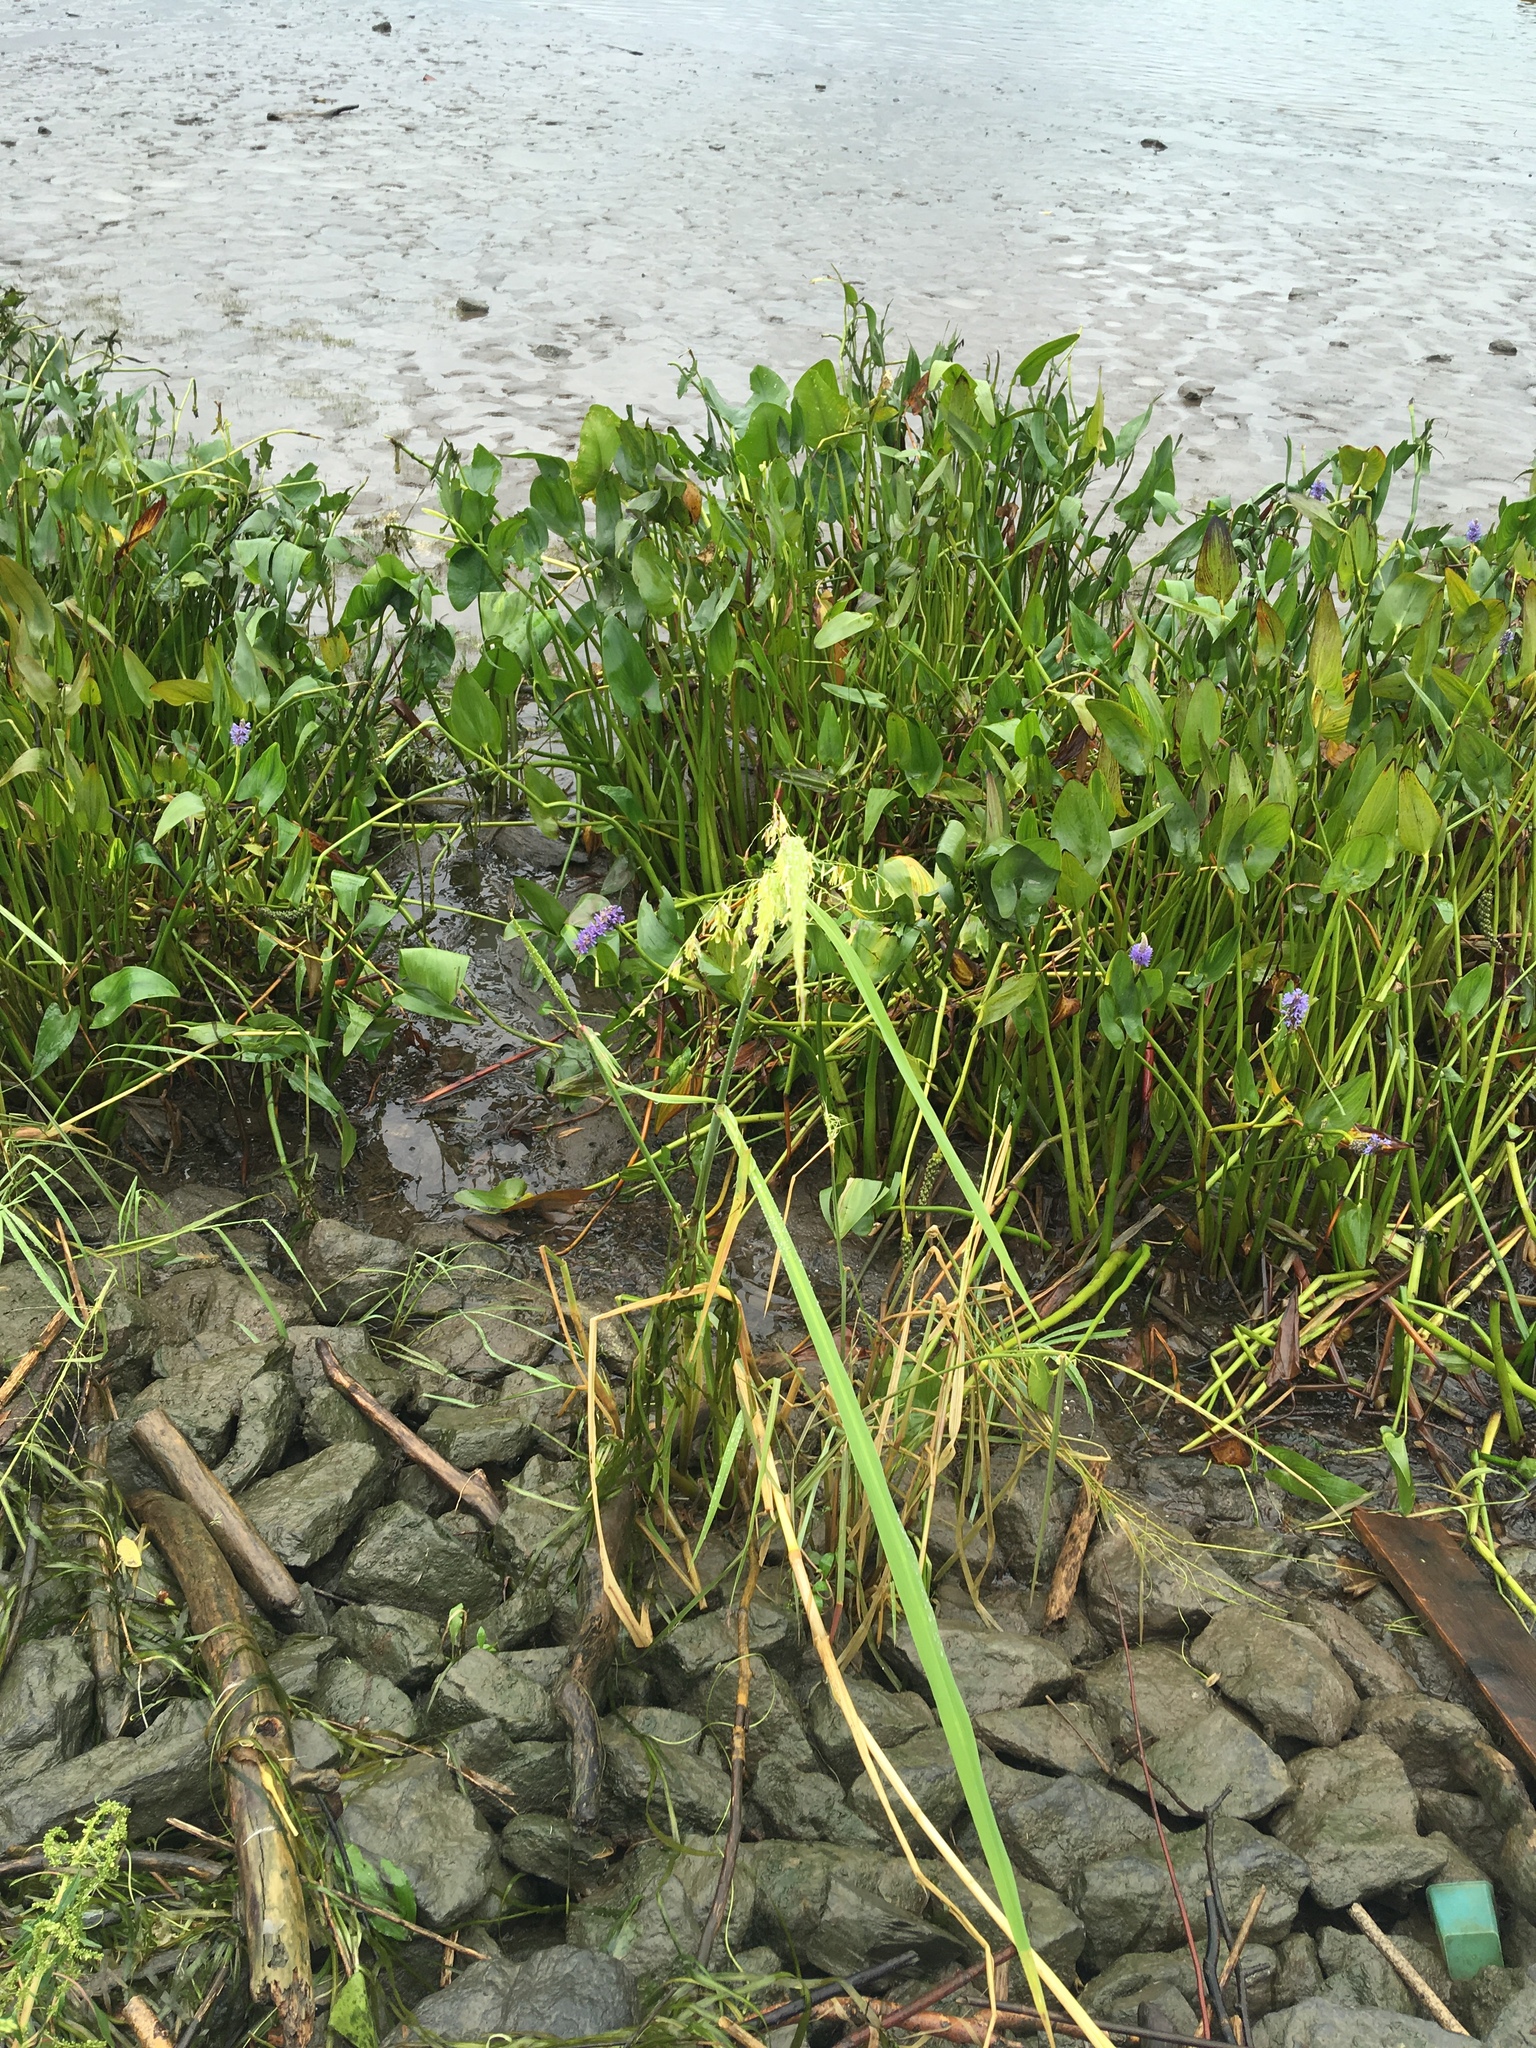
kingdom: Plantae
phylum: Tracheophyta
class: Liliopsida
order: Poales
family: Poaceae
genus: Zizania
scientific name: Zizania palustris
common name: Northern wild rice
